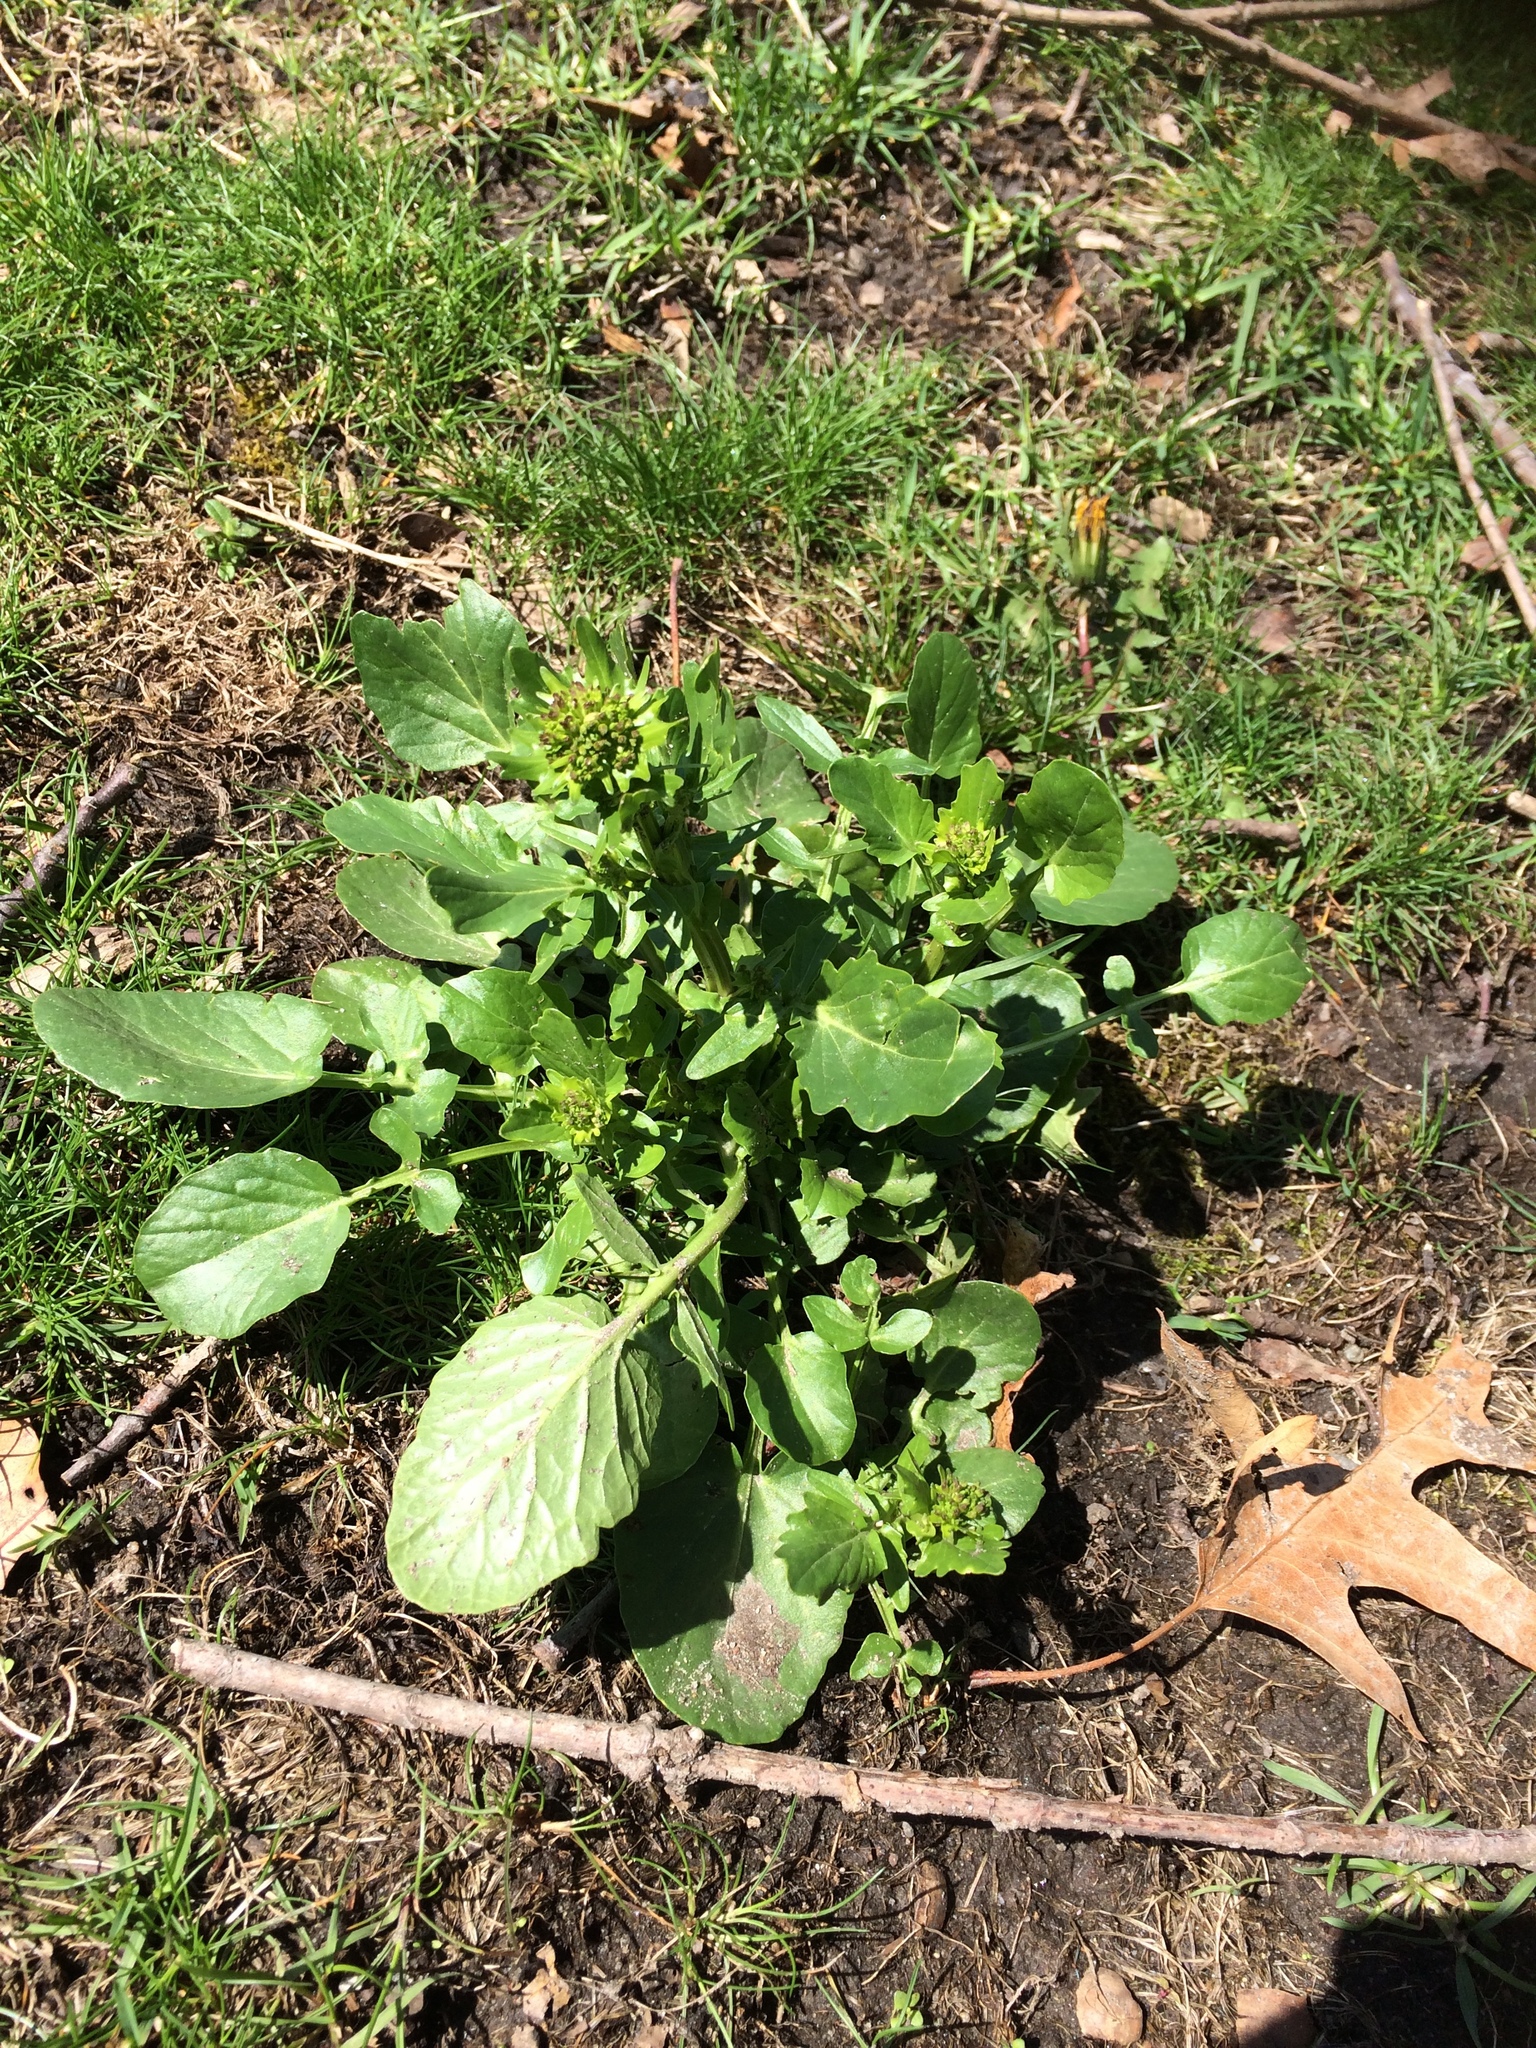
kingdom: Plantae
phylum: Tracheophyta
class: Magnoliopsida
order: Brassicales
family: Brassicaceae
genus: Barbarea
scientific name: Barbarea vulgaris
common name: Cressy-greens
